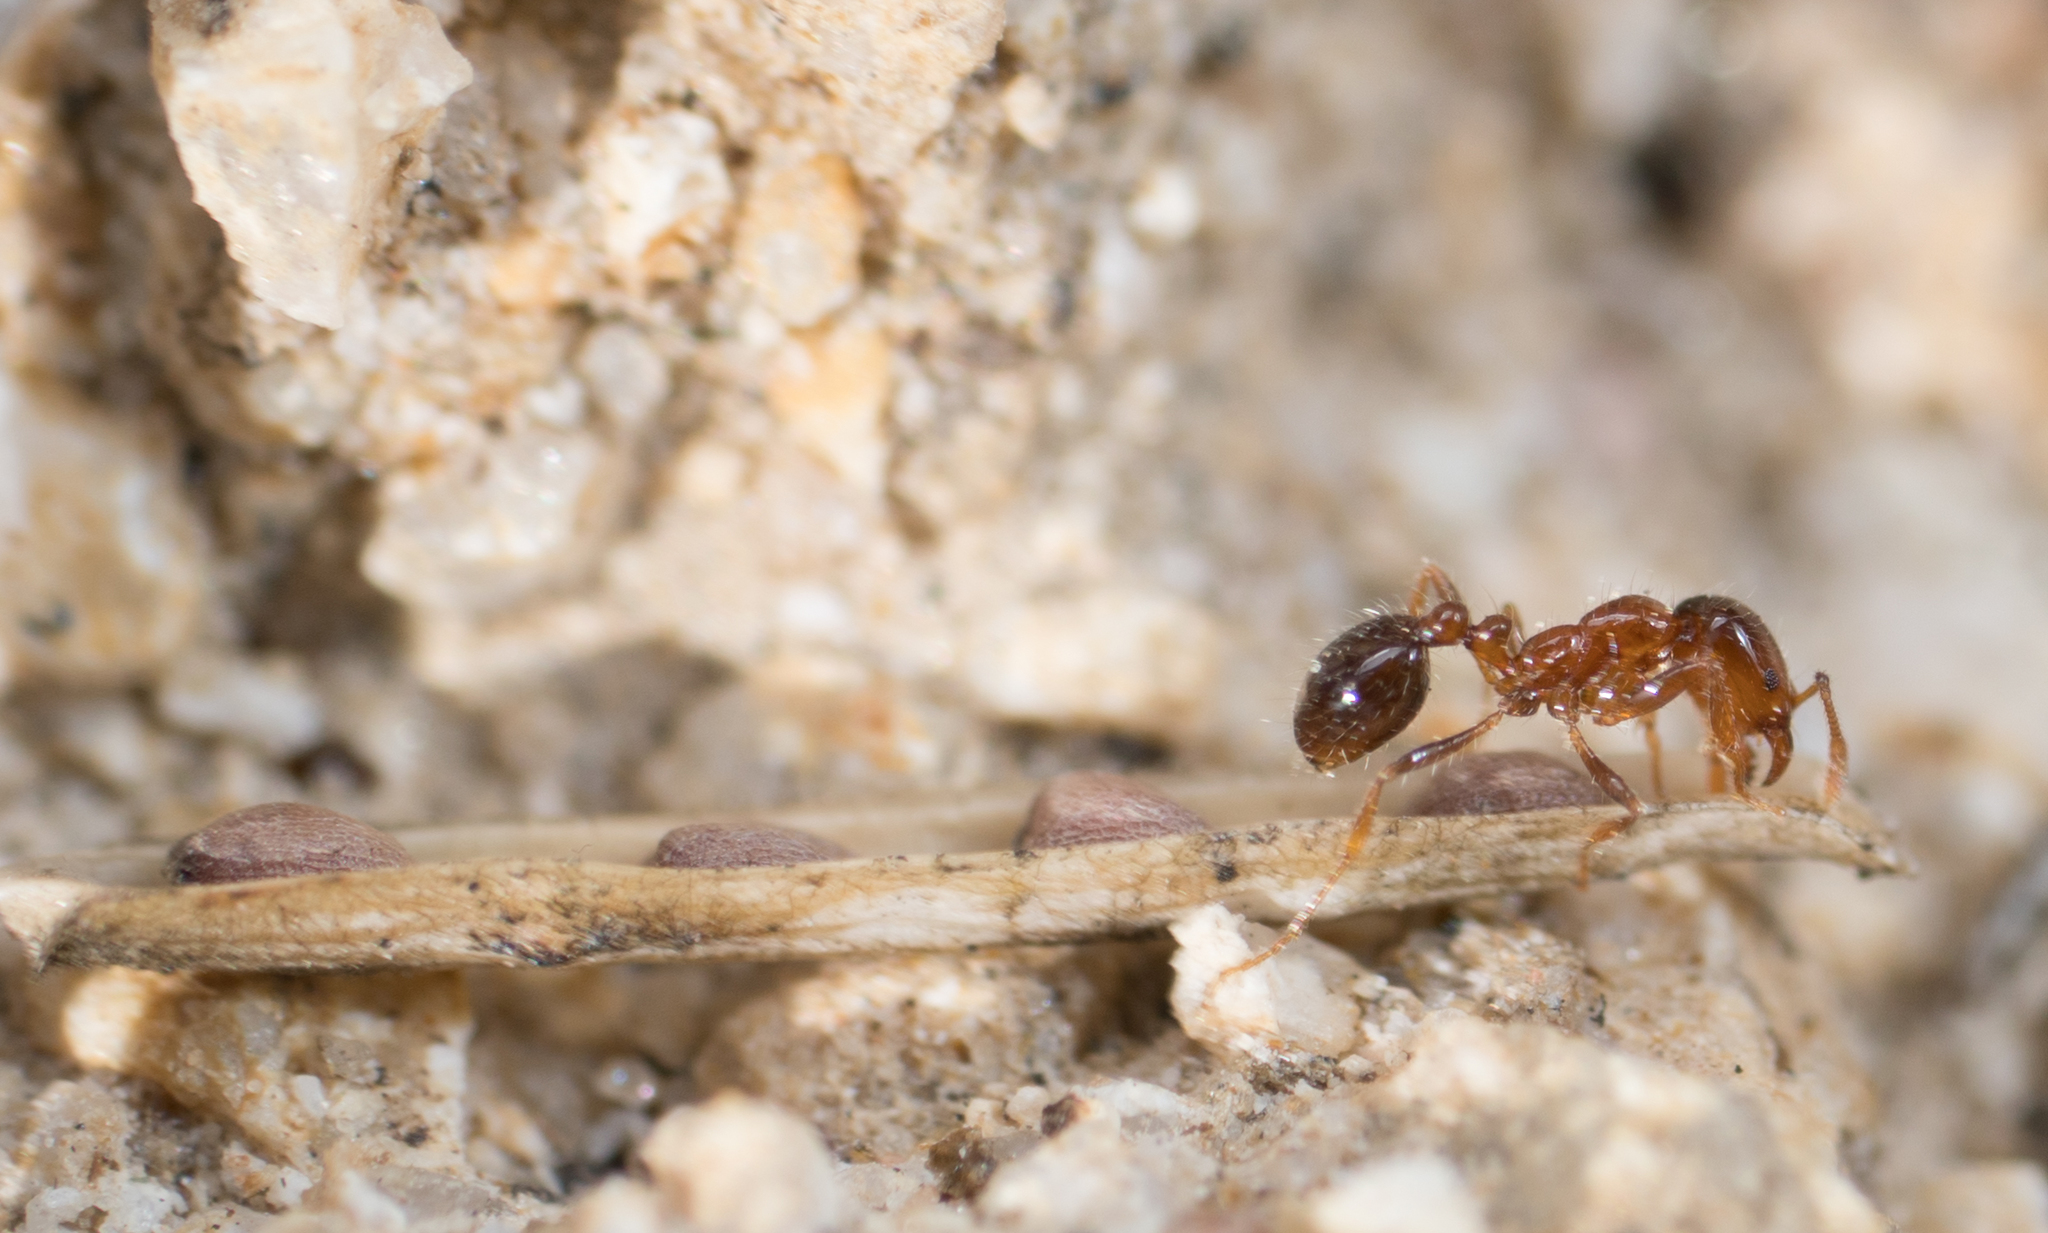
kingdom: Animalia
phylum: Arthropoda
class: Insecta
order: Hymenoptera
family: Formicidae
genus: Solenopsis
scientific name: Solenopsis invicta
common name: Red imported fire ant
